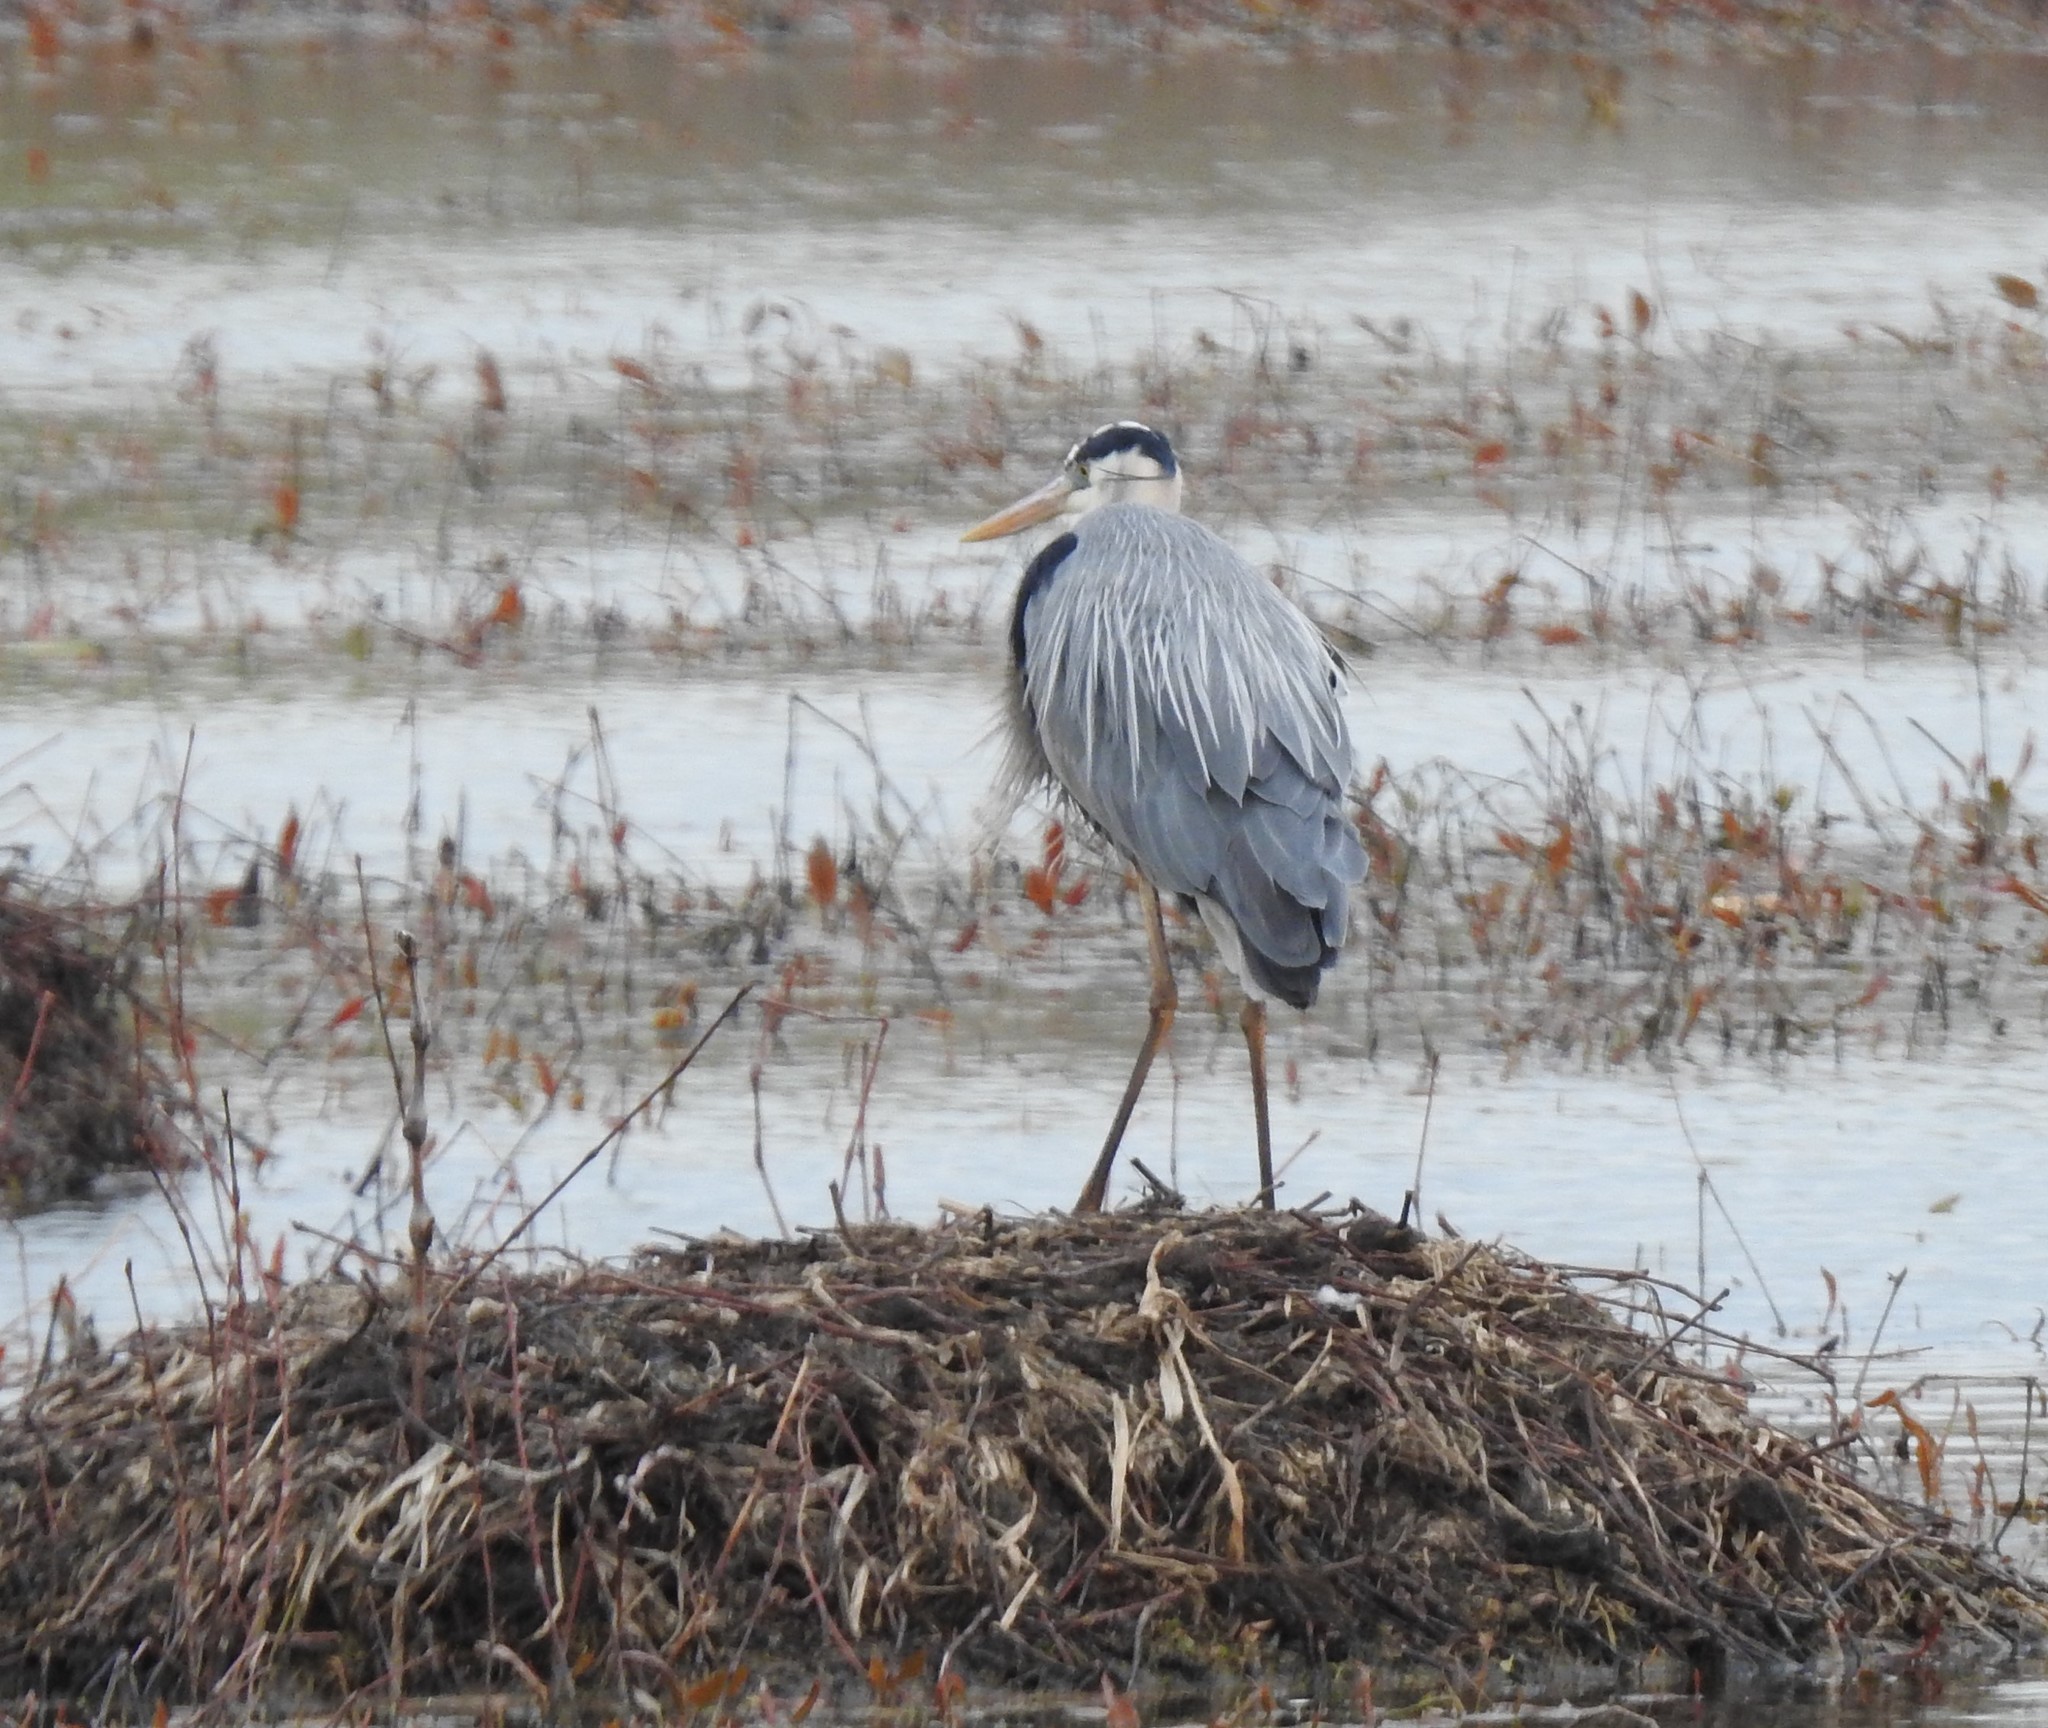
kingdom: Animalia
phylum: Chordata
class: Aves
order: Pelecaniformes
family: Ardeidae
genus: Ardea
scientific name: Ardea herodias
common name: Great blue heron
